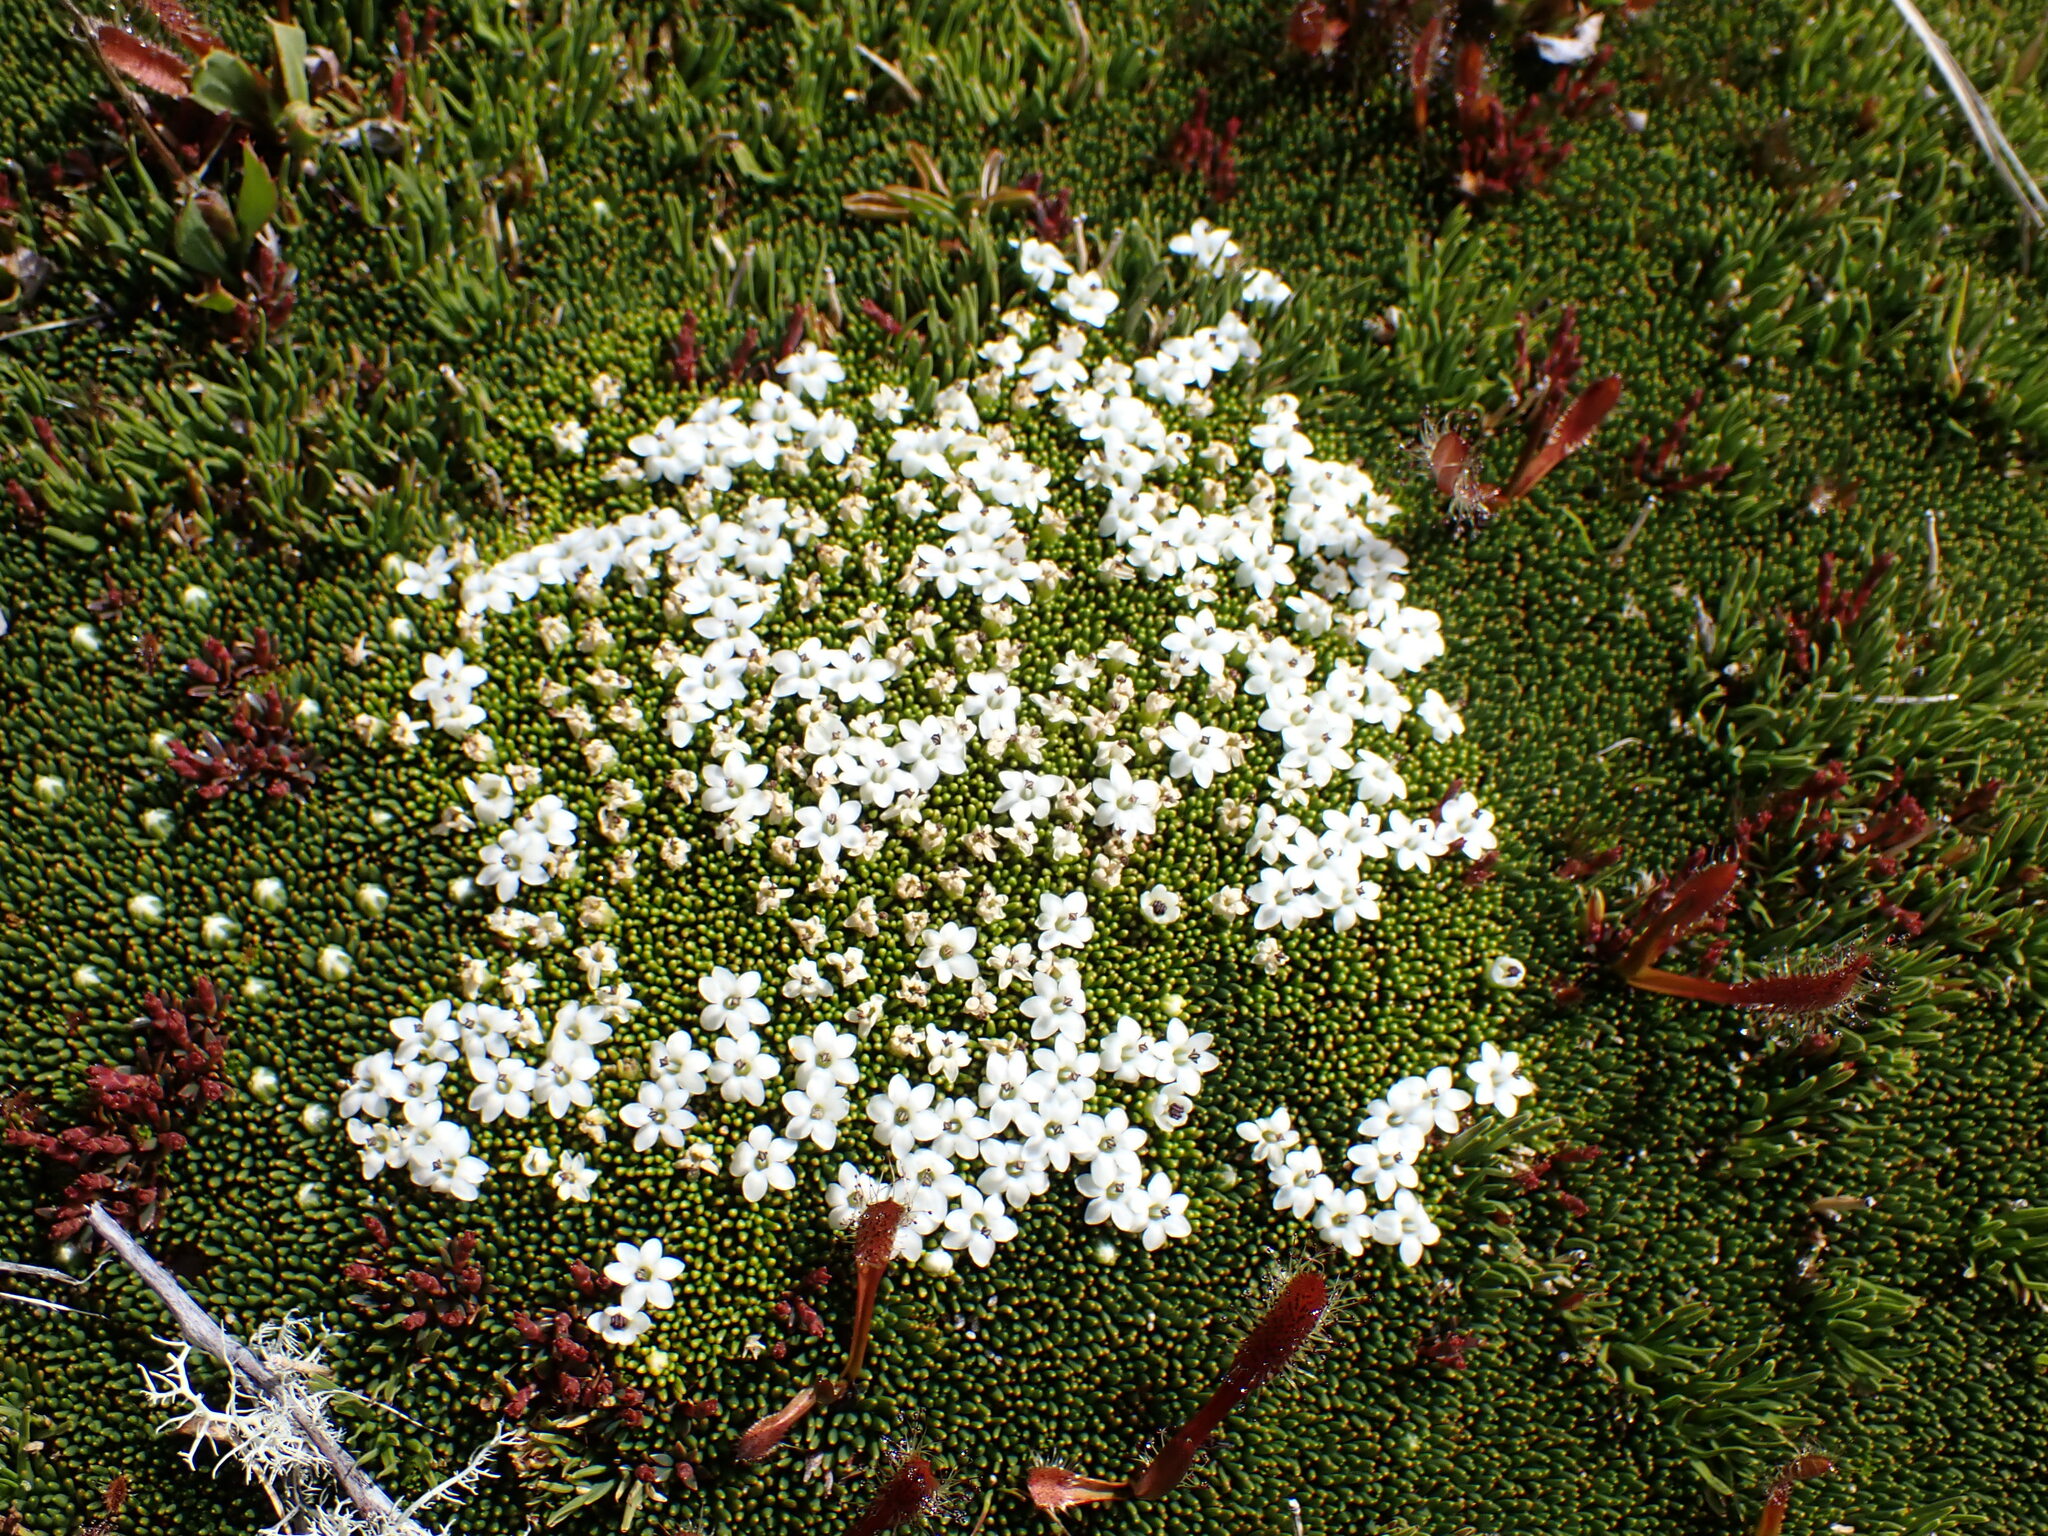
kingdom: Plantae
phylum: Tracheophyta
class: Magnoliopsida
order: Asterales
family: Stylidiaceae
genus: Phyllachne
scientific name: Phyllachne colensoi
